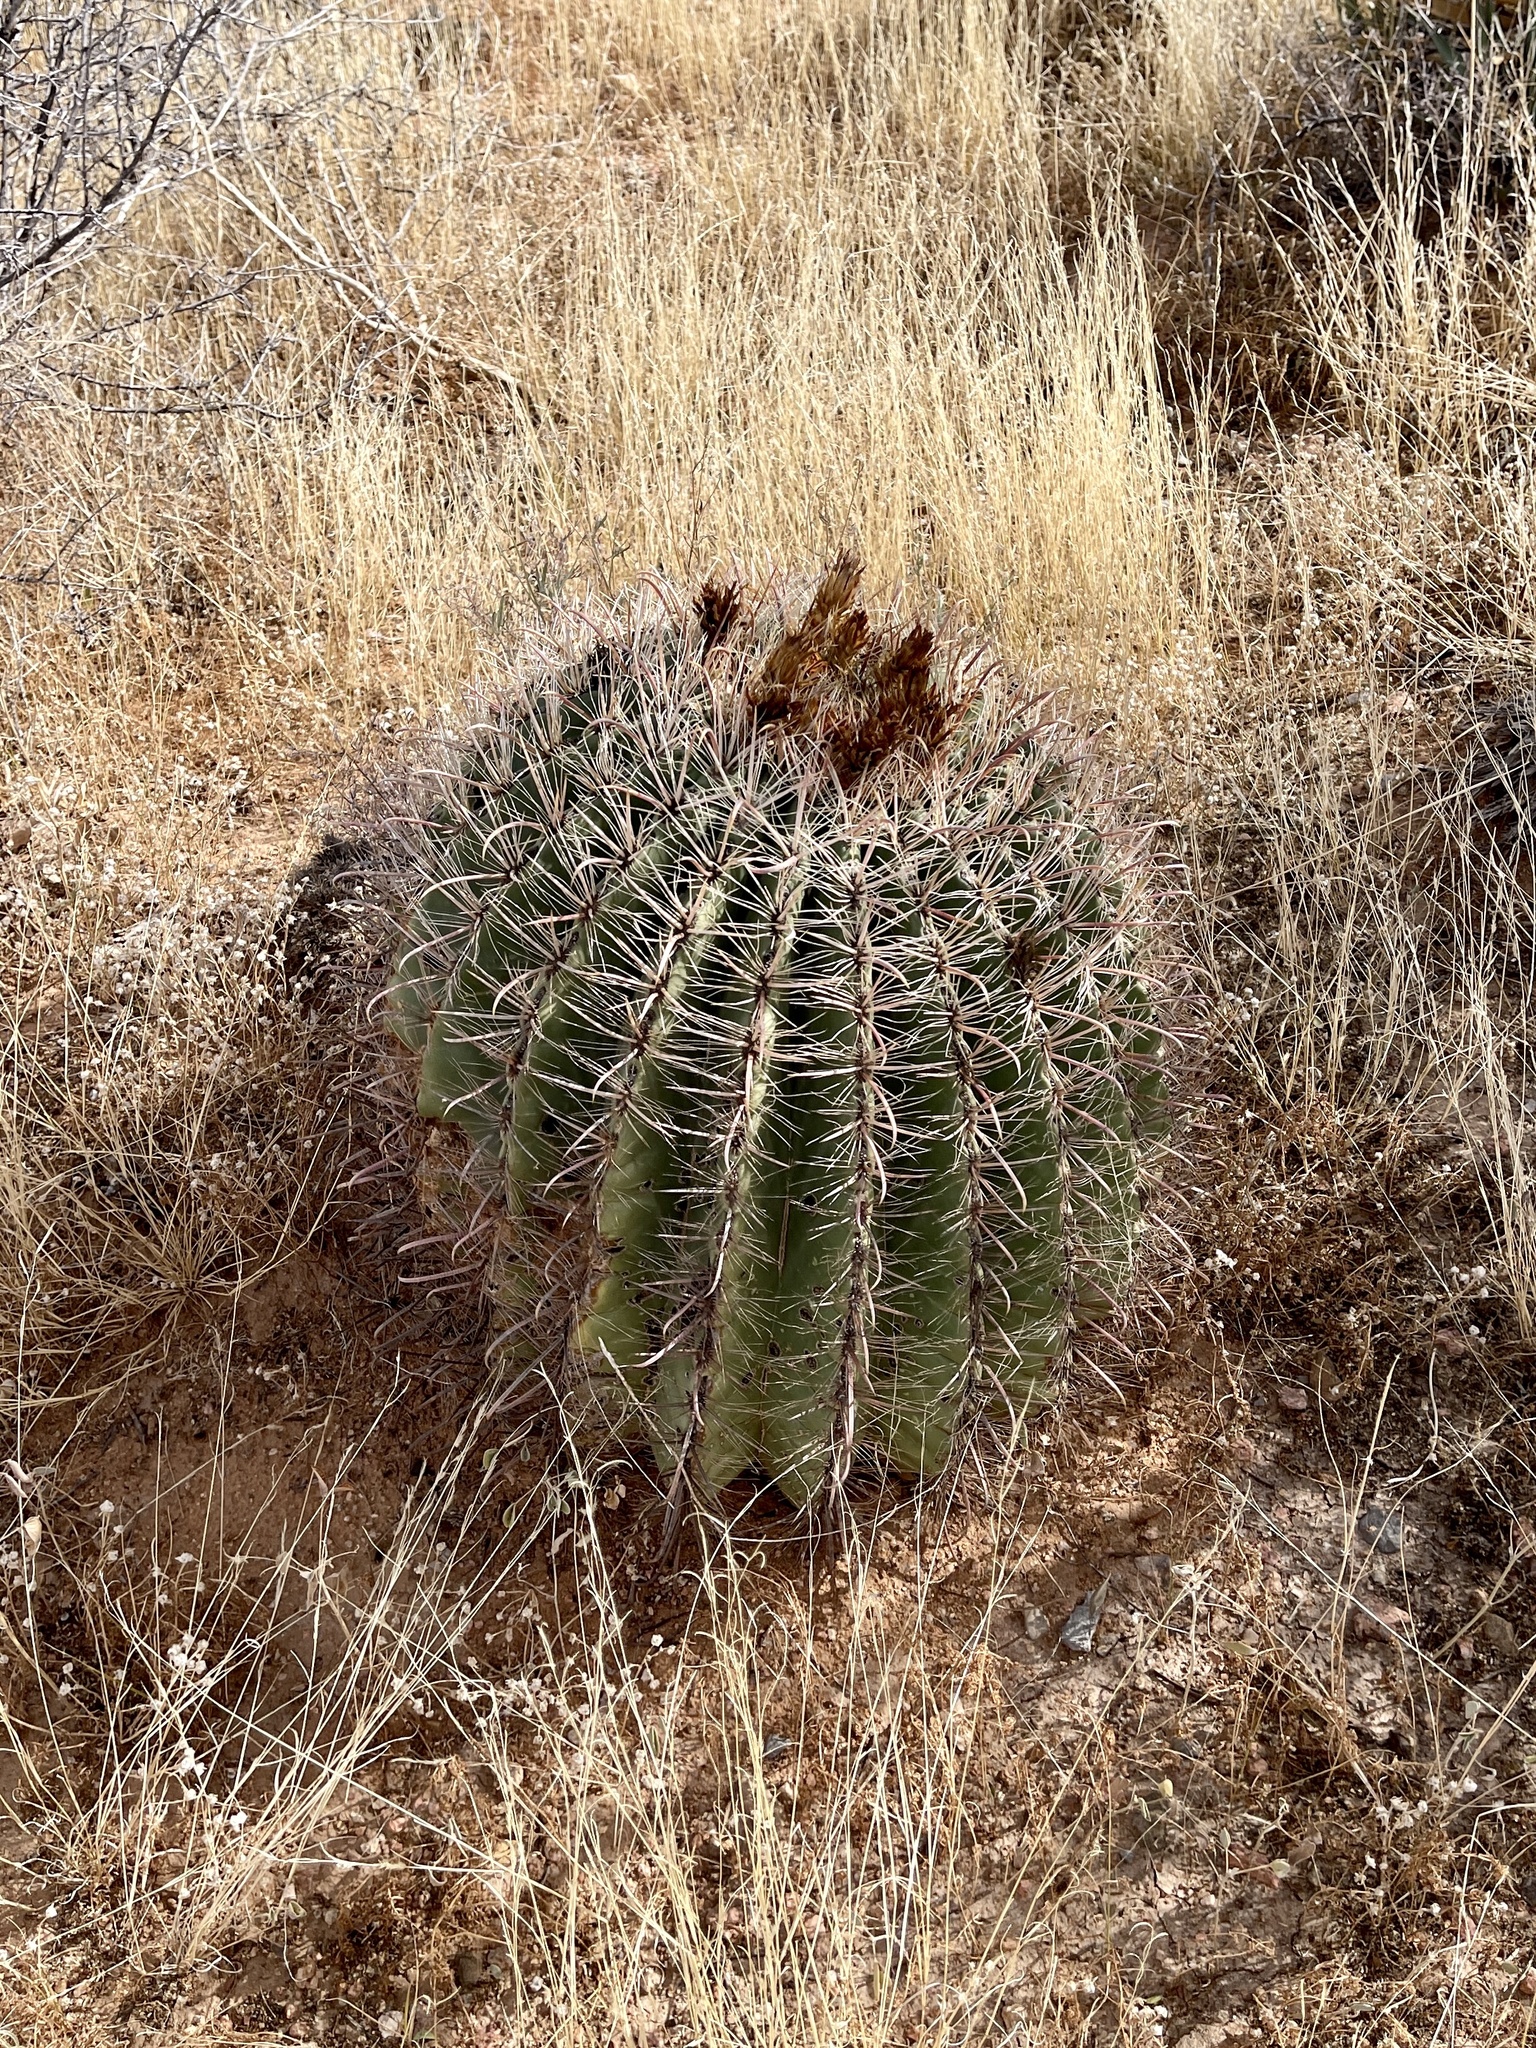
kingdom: Plantae
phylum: Tracheophyta
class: Magnoliopsida
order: Caryophyllales
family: Cactaceae
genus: Ferocactus
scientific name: Ferocactus wislizeni
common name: Candy barrel cactus
